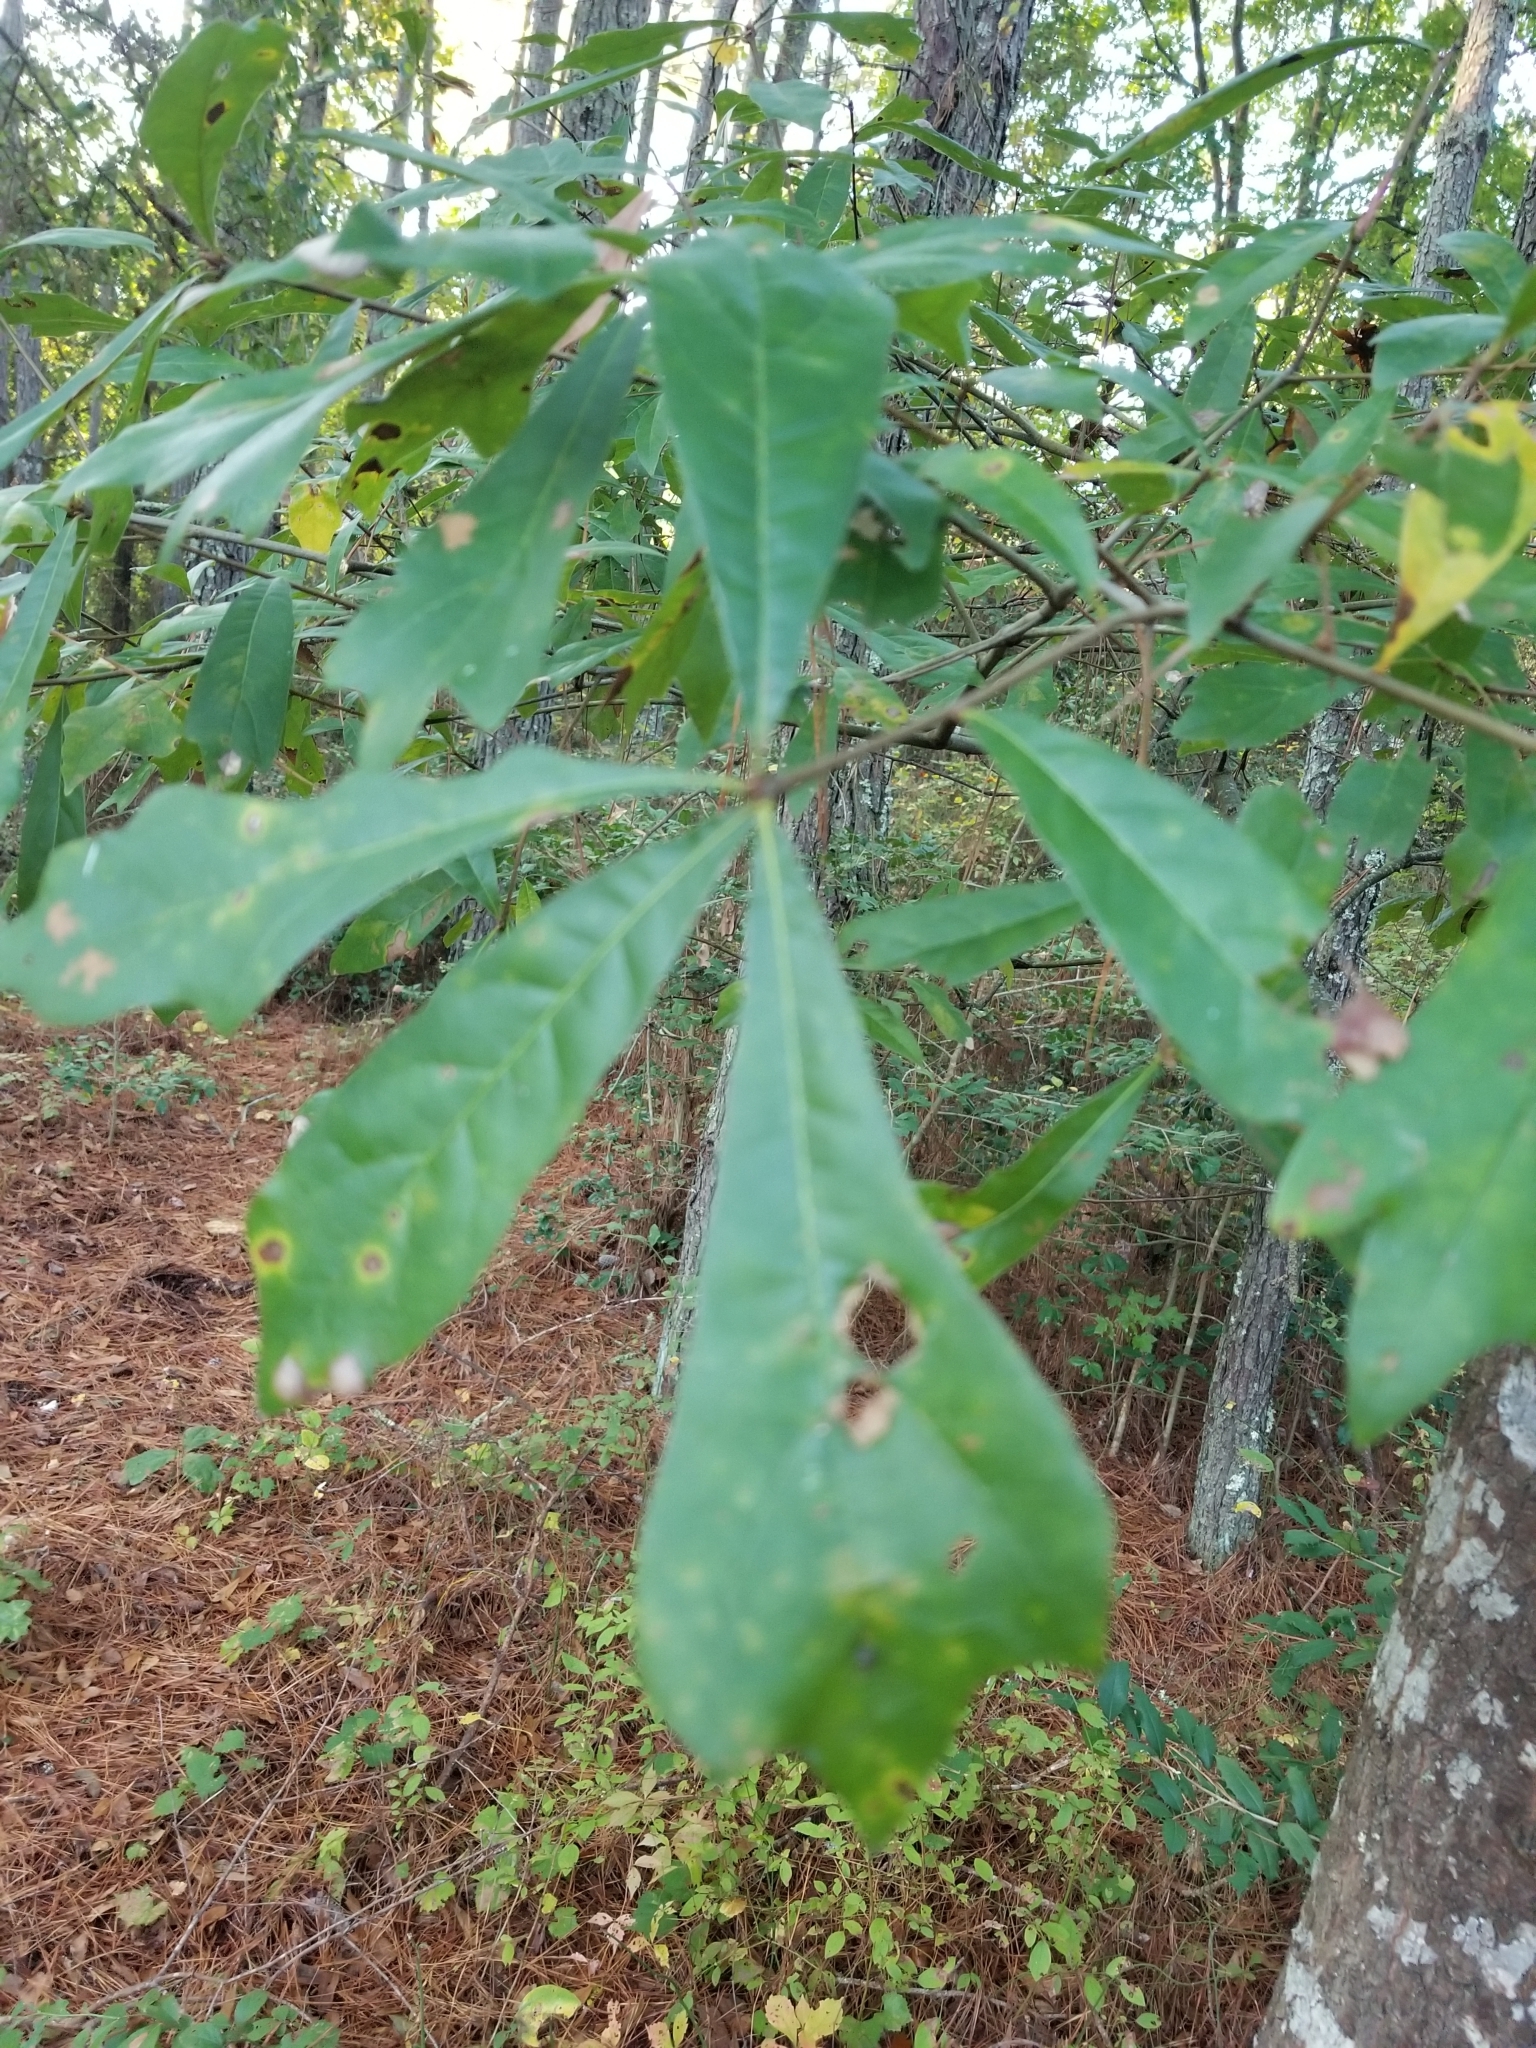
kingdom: Plantae
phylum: Tracheophyta
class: Magnoliopsida
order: Fagales
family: Fagaceae
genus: Quercus
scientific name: Quercus nigra
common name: Water oak
